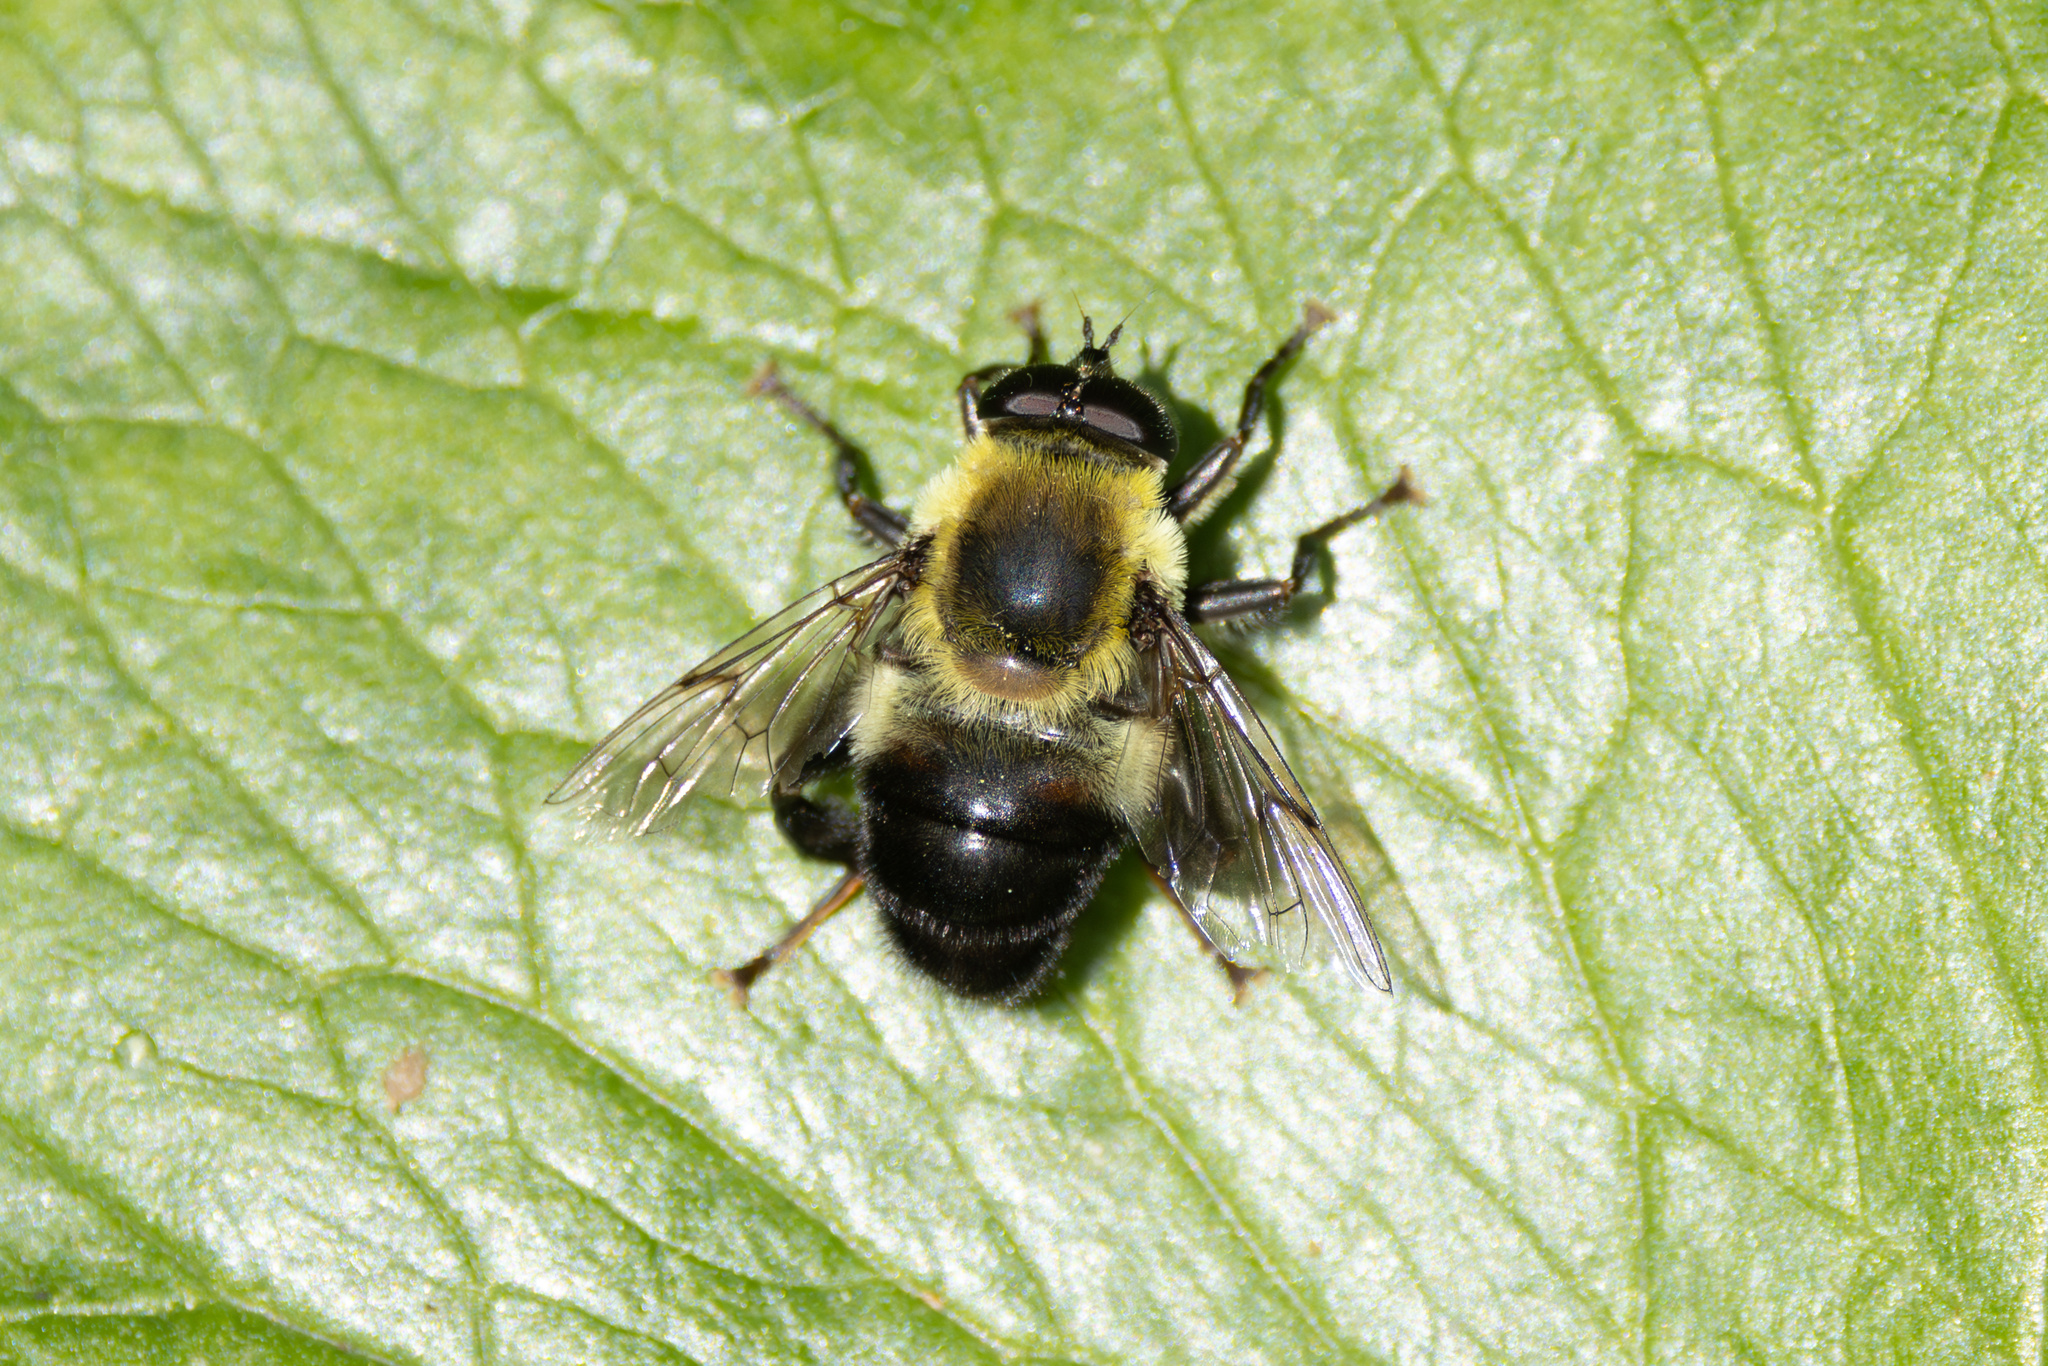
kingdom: Animalia
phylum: Arthropoda
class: Insecta
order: Diptera
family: Syrphidae
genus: Imatisma
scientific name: Imatisma posticata
